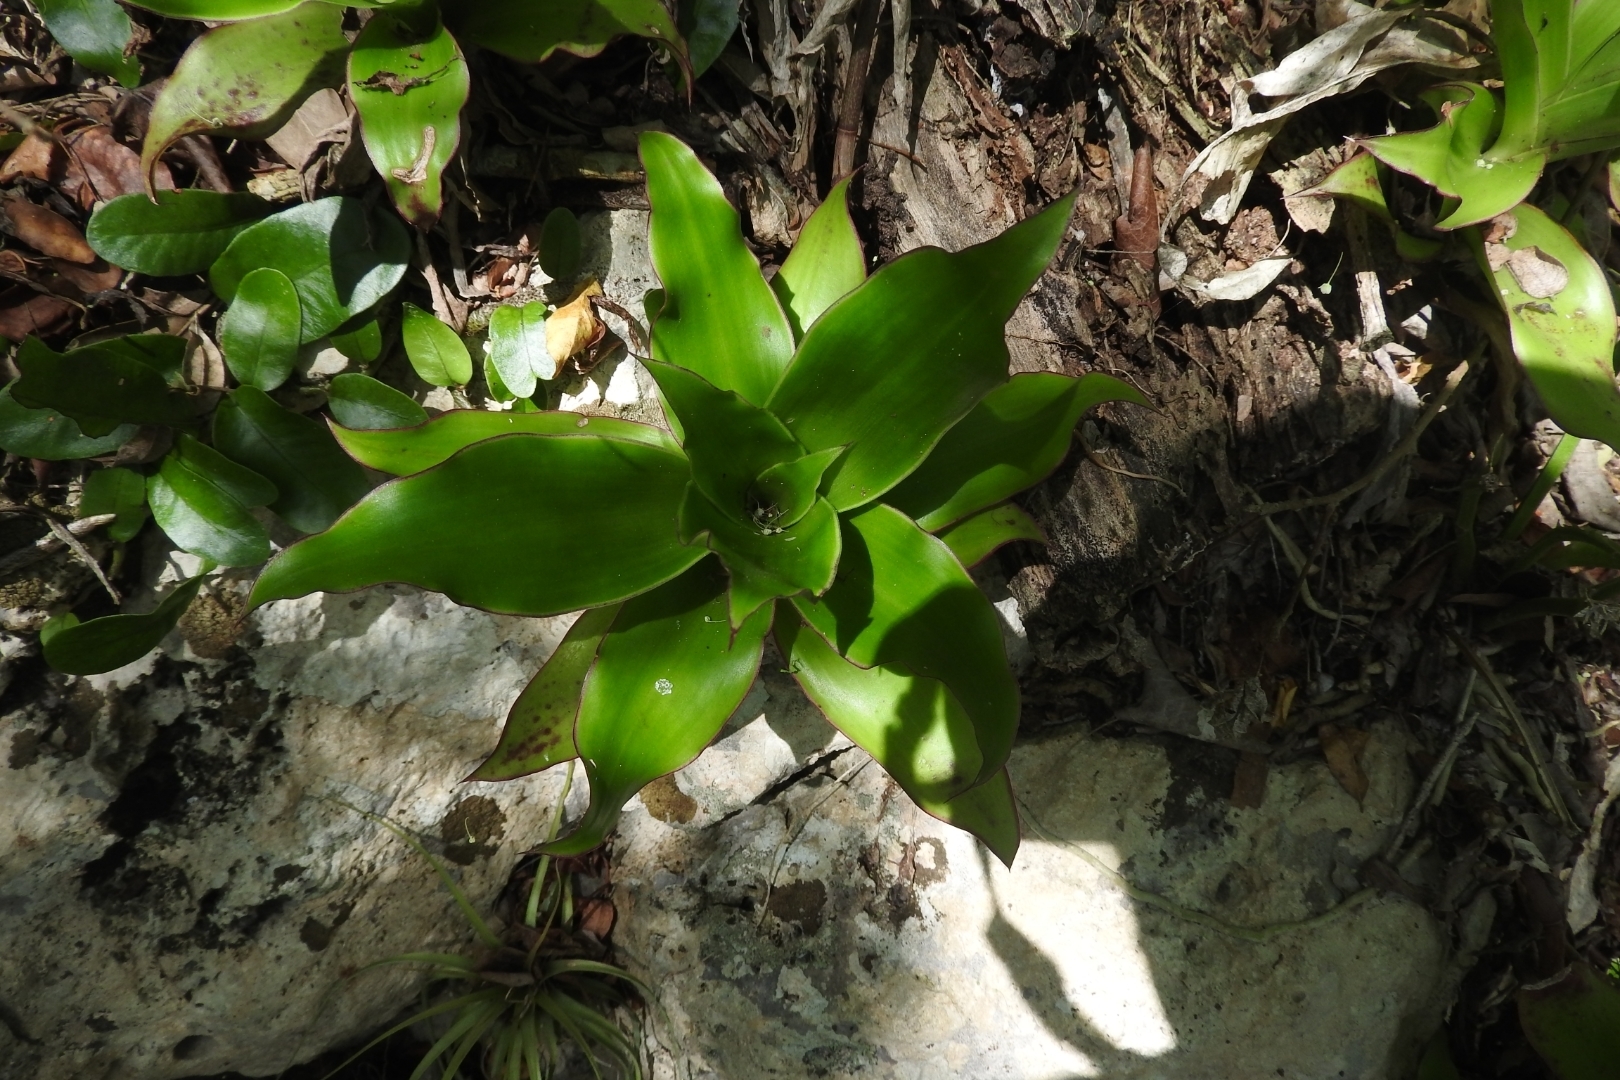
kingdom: Plantae
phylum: Tracheophyta
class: Liliopsida
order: Commelinales
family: Commelinaceae
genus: Callisia
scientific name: Callisia fragrans
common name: Basketplant
